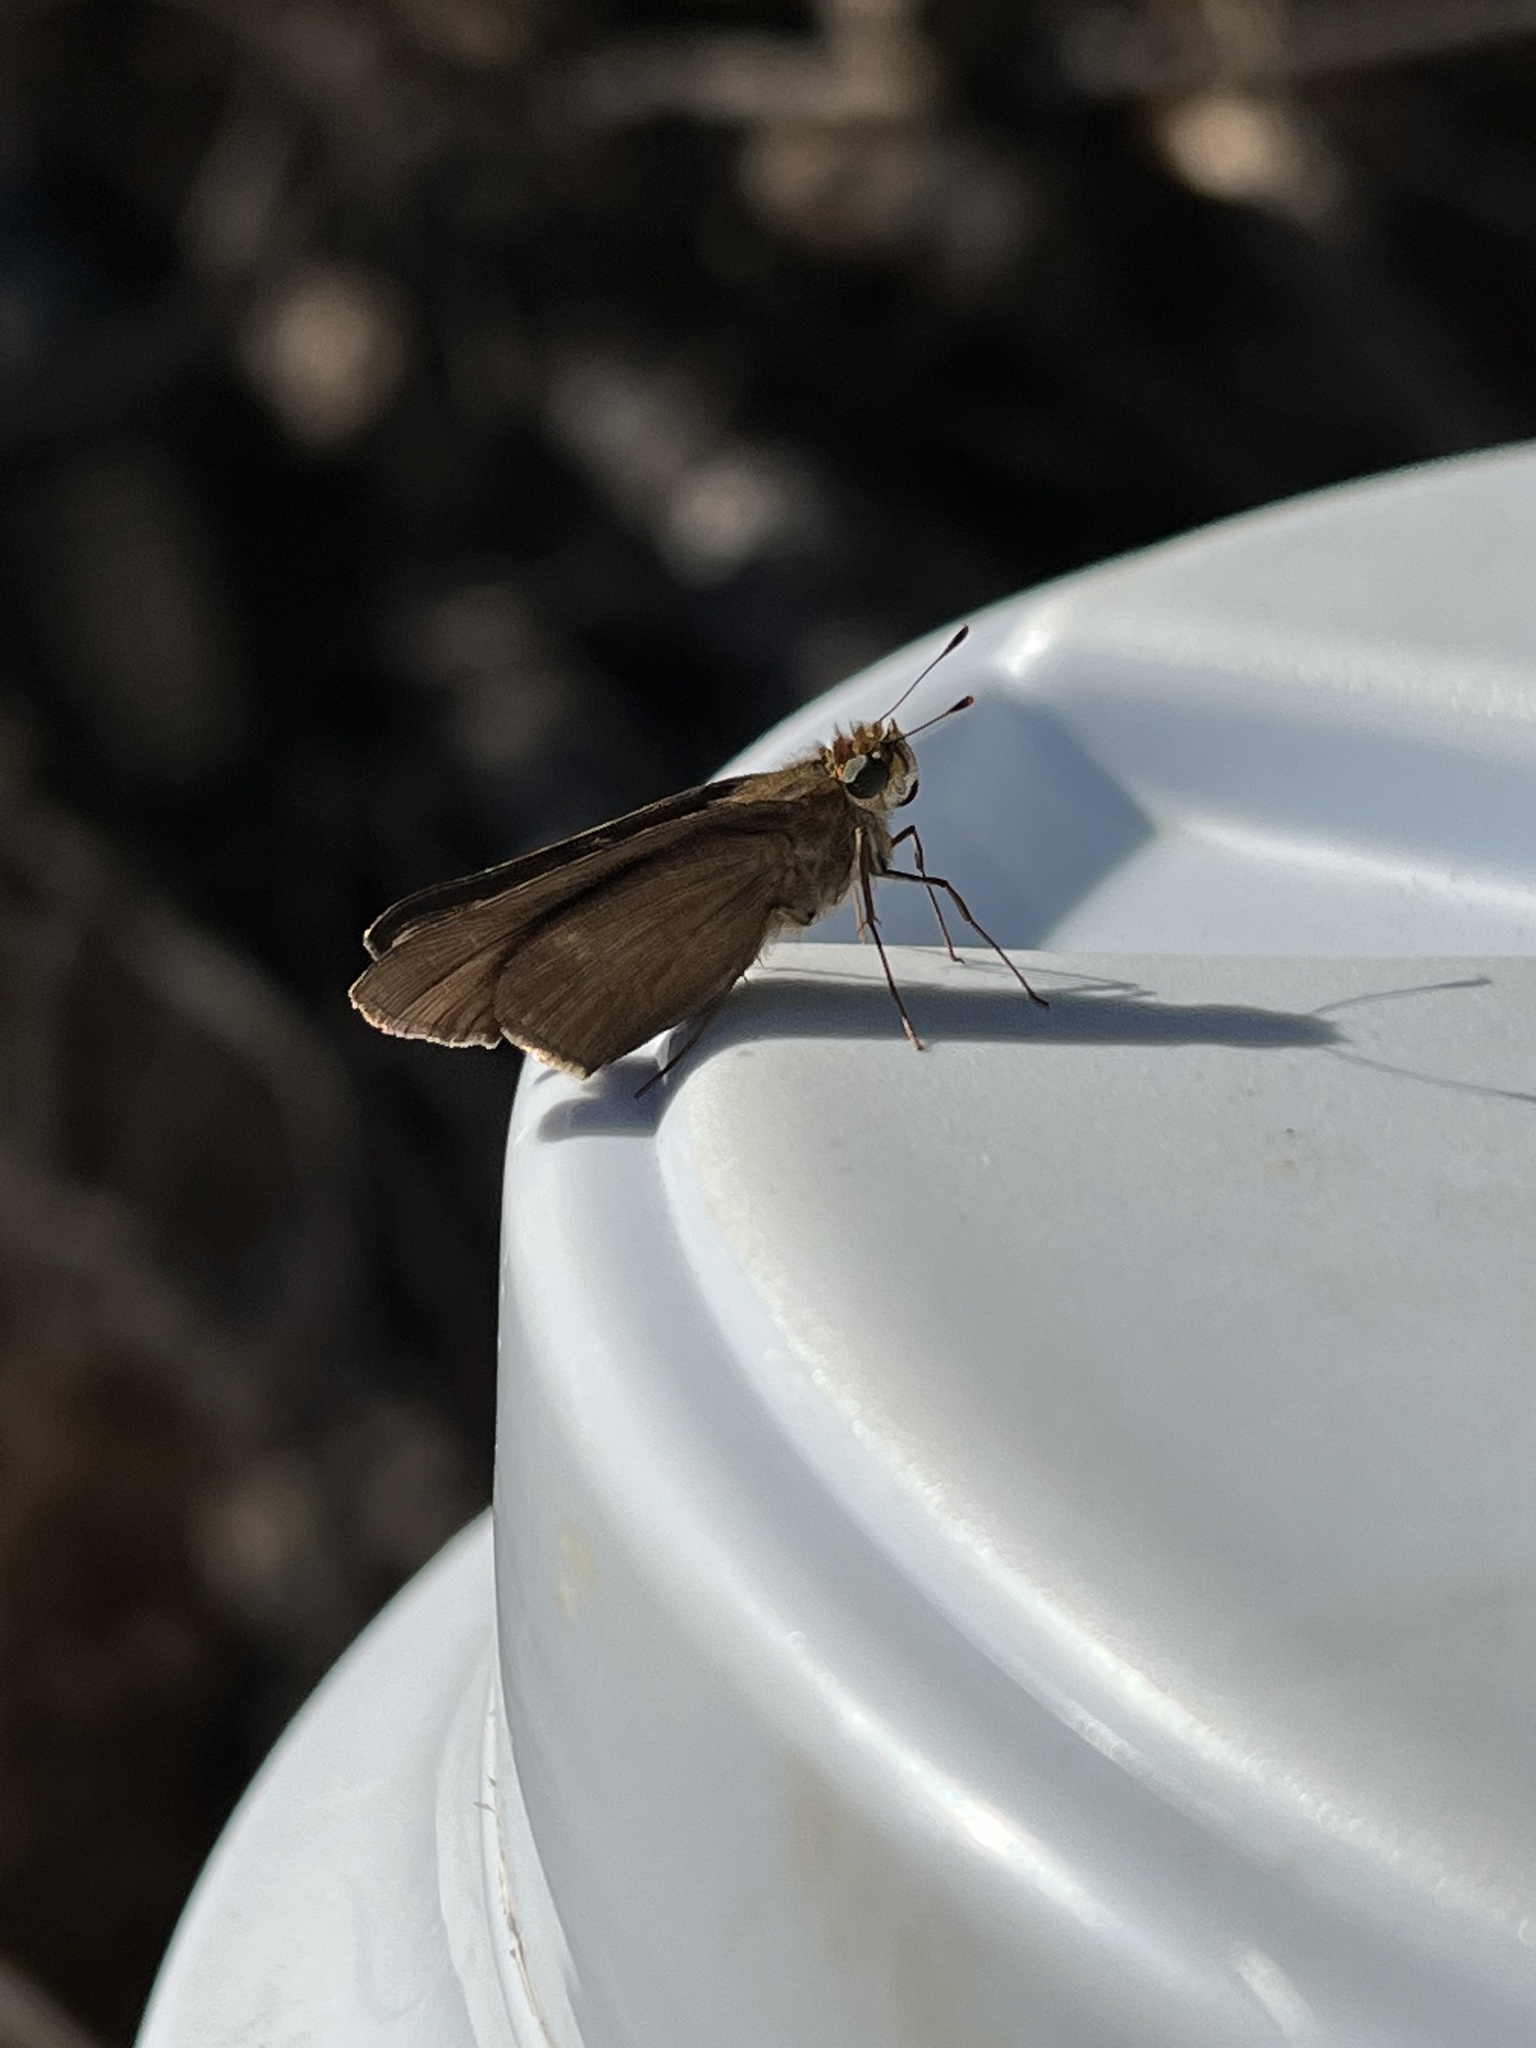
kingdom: Animalia
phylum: Arthropoda
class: Insecta
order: Lepidoptera
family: Hesperiidae
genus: Panoquina
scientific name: Panoquina ocola
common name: Ocola skipper
